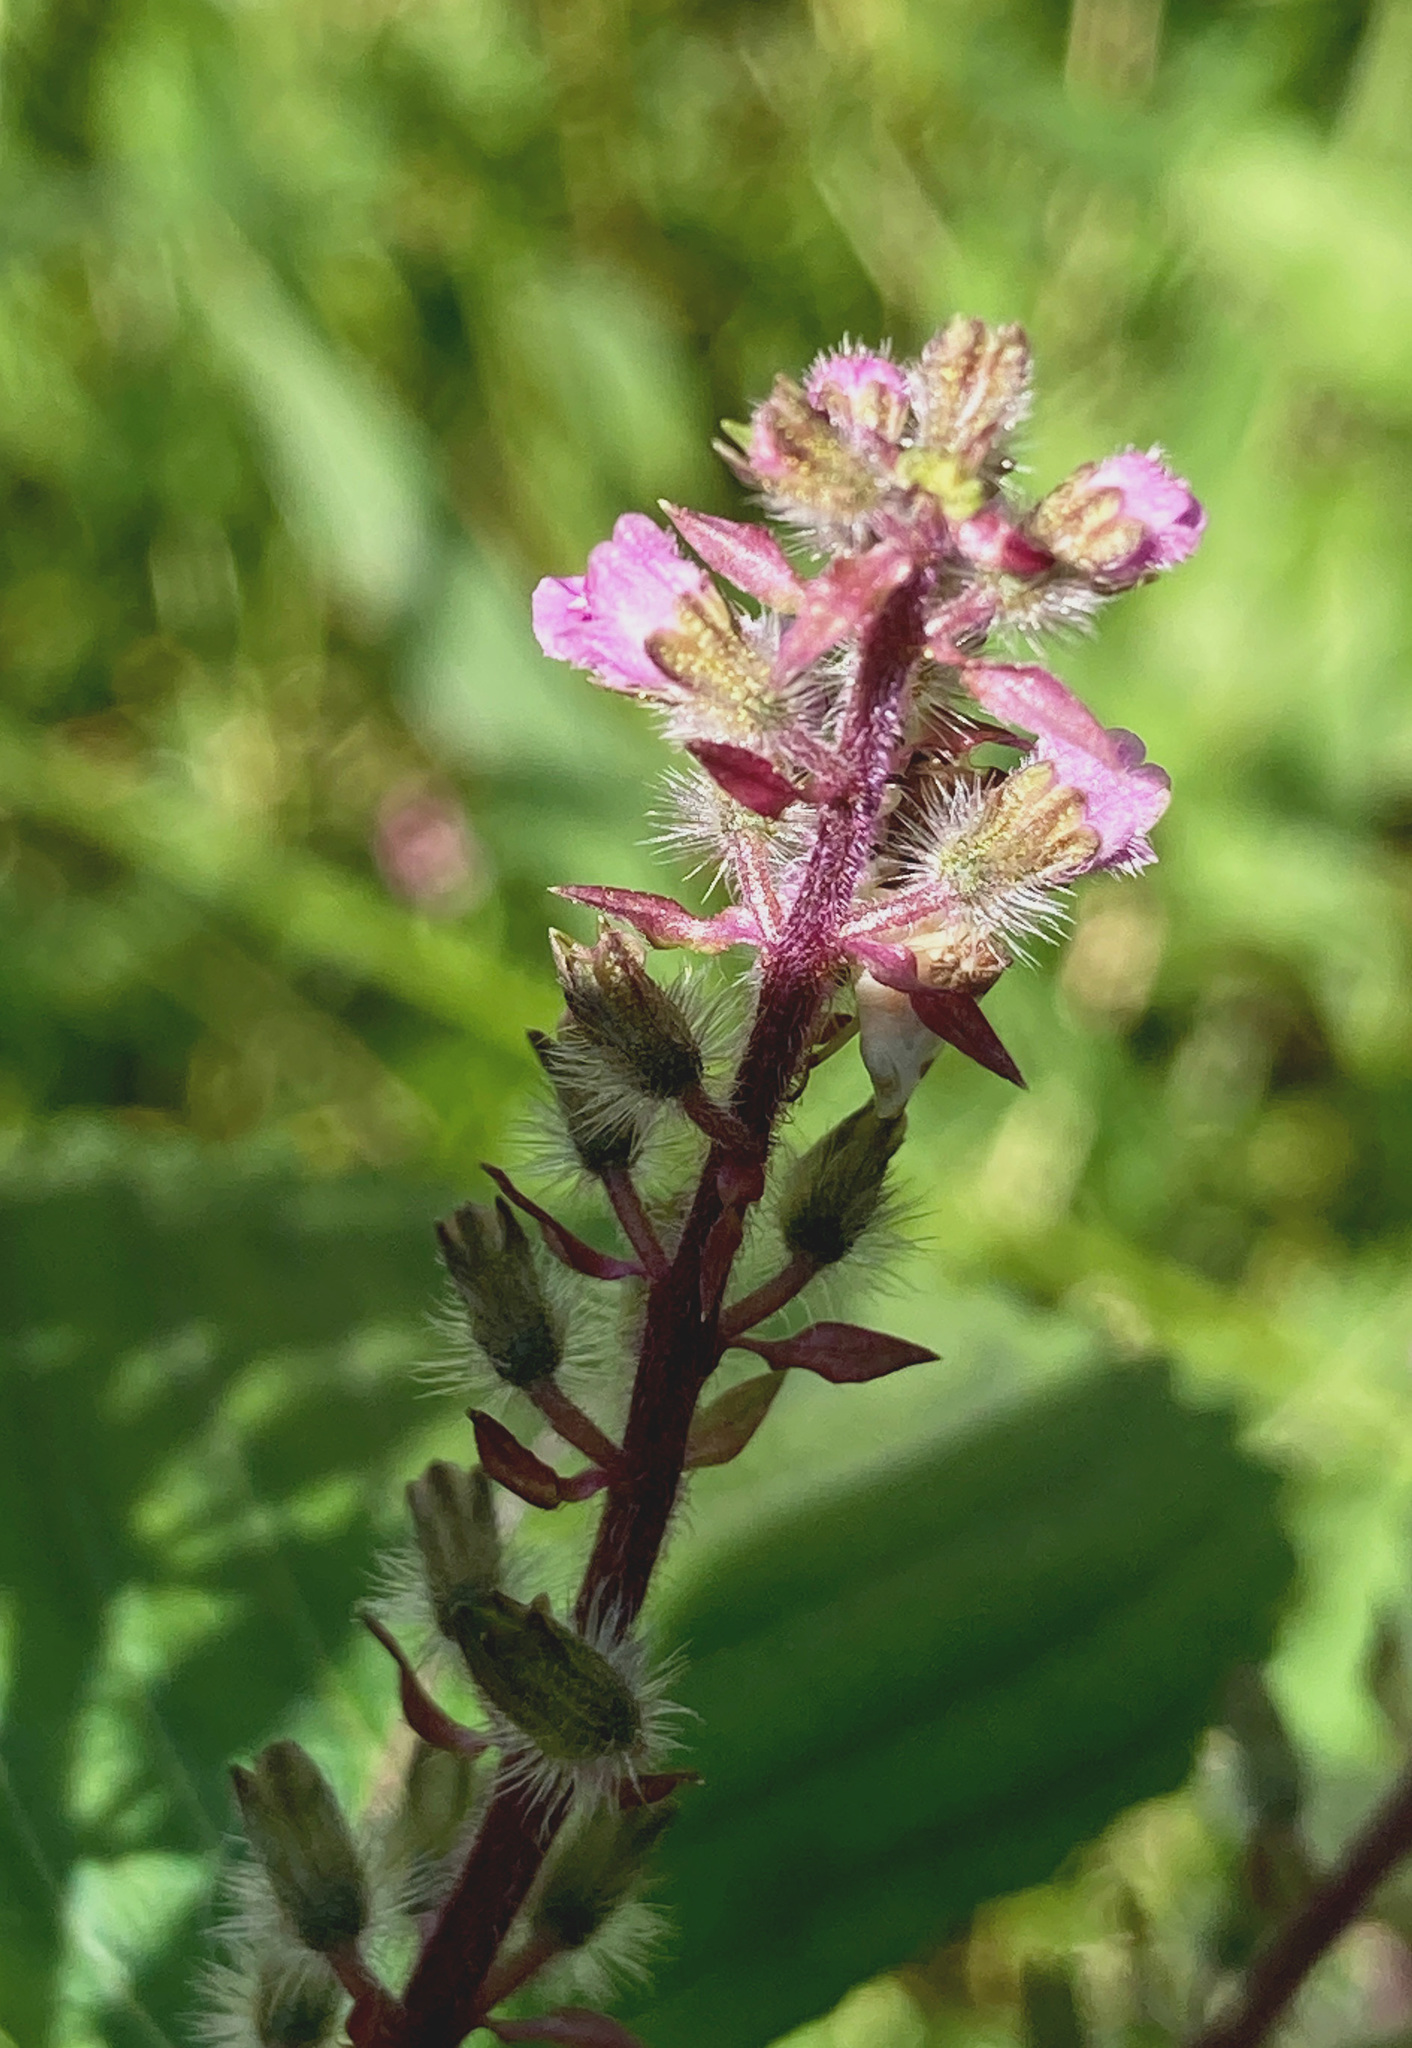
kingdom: Plantae
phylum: Tracheophyta
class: Magnoliopsida
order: Lamiales
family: Lamiaceae
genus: Perilla
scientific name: Perilla frutescens
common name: Perilla
